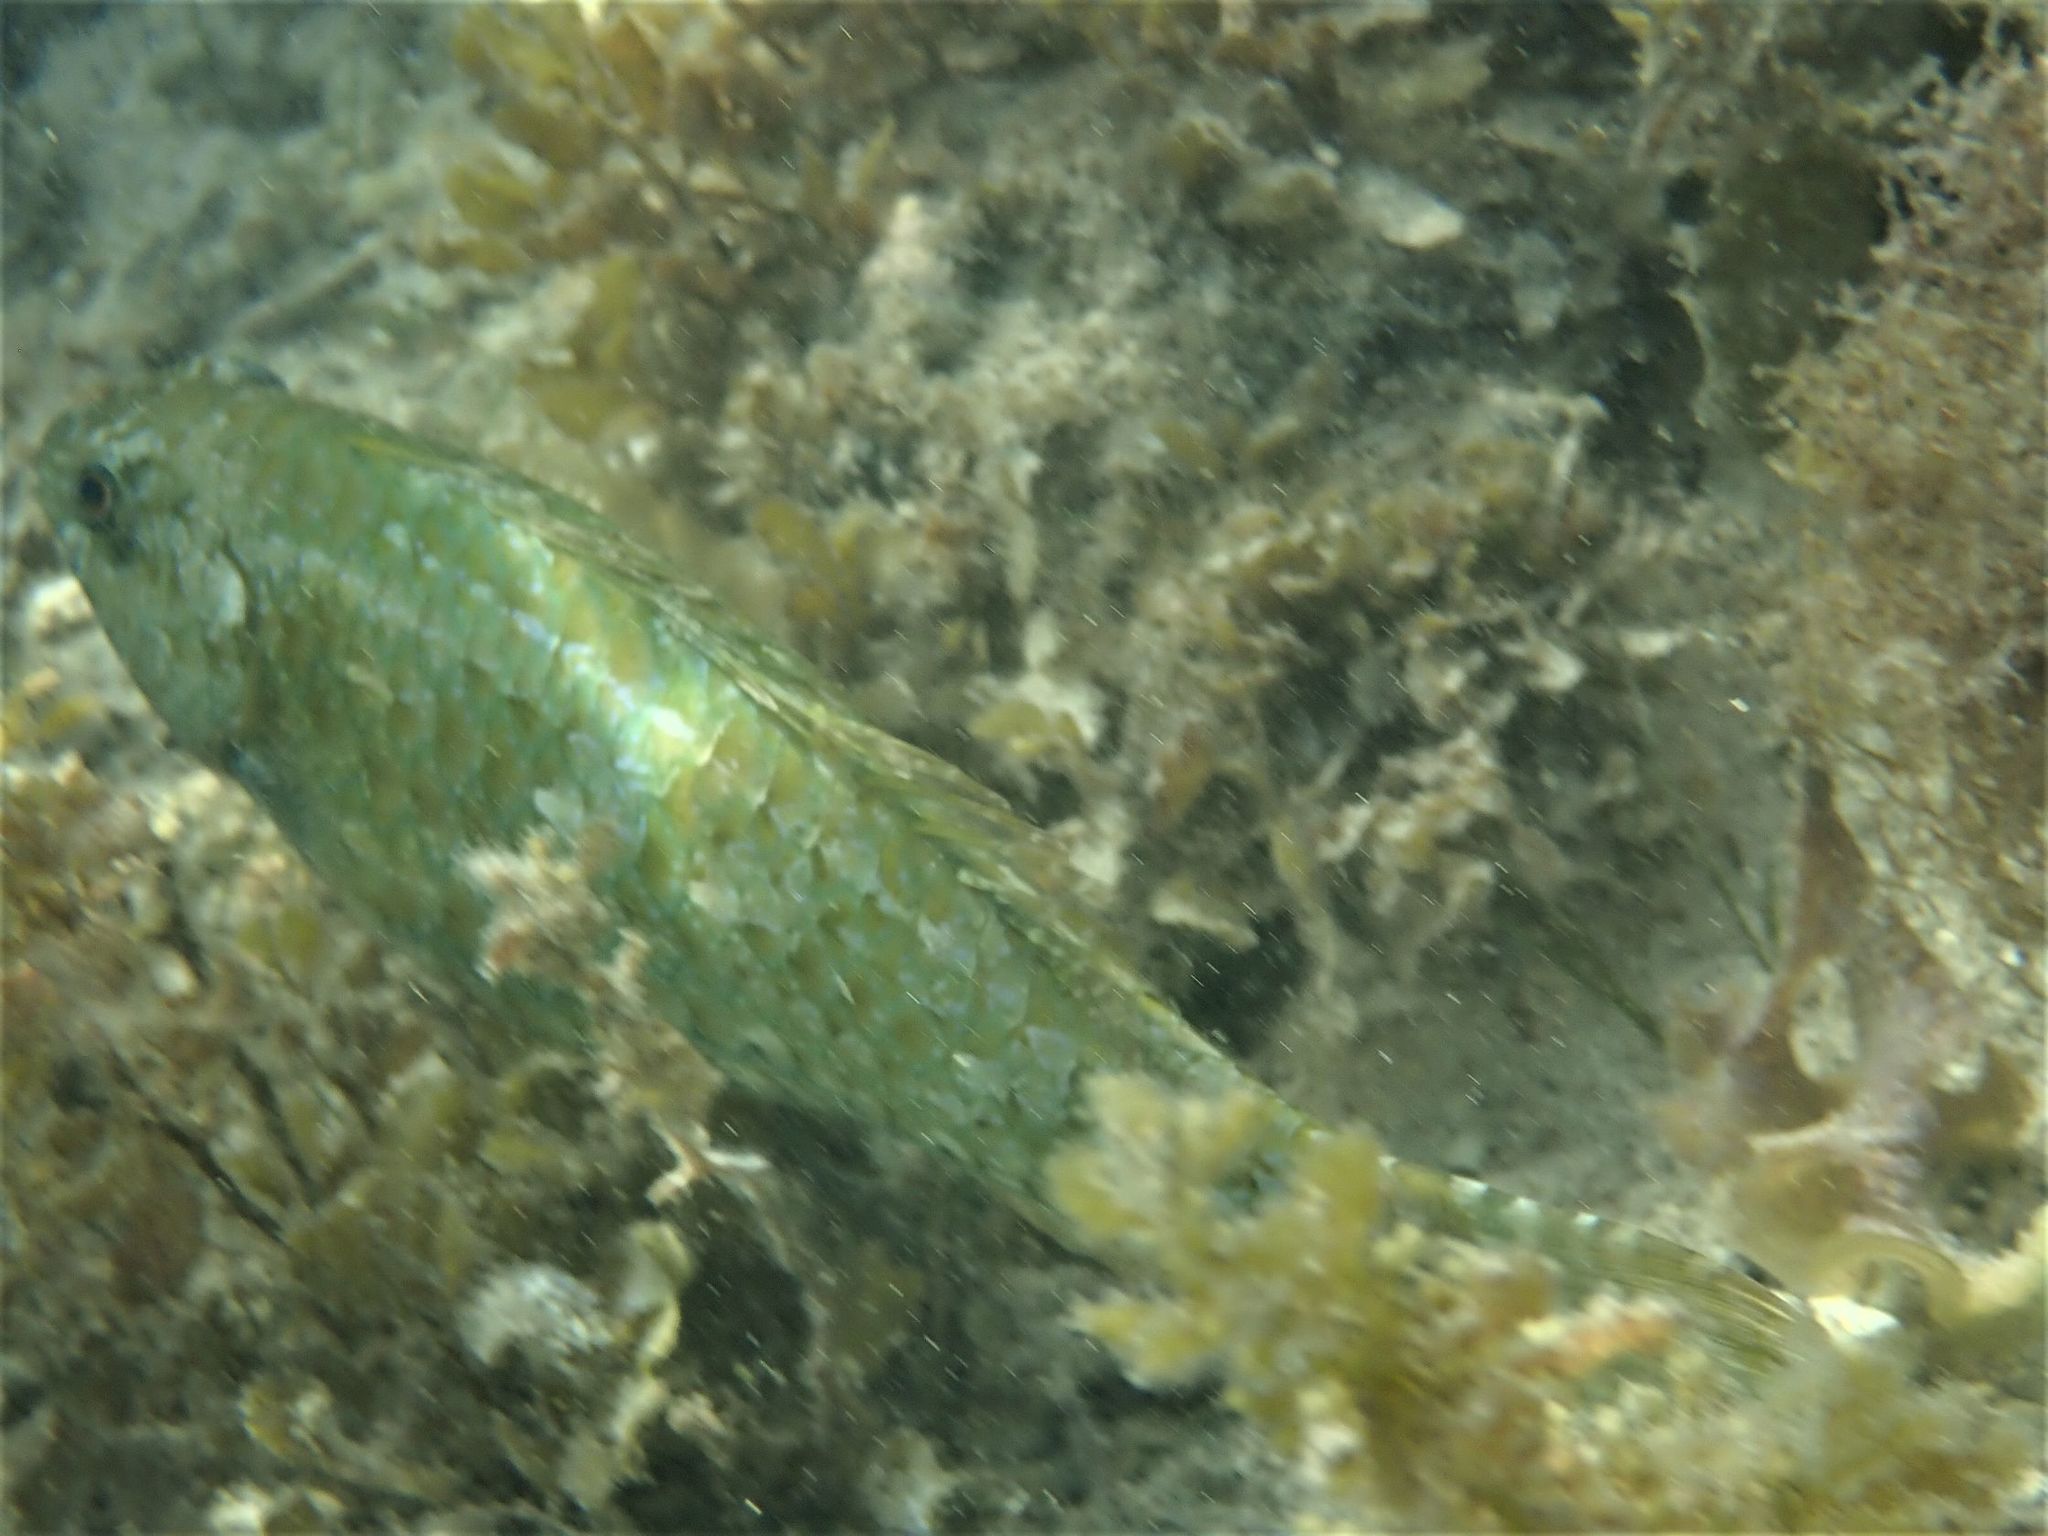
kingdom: Animalia
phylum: Chordata
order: Perciformes
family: Scaridae
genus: Leptoscarus
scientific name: Leptoscarus vaigiensis
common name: Marbled parrotfish
